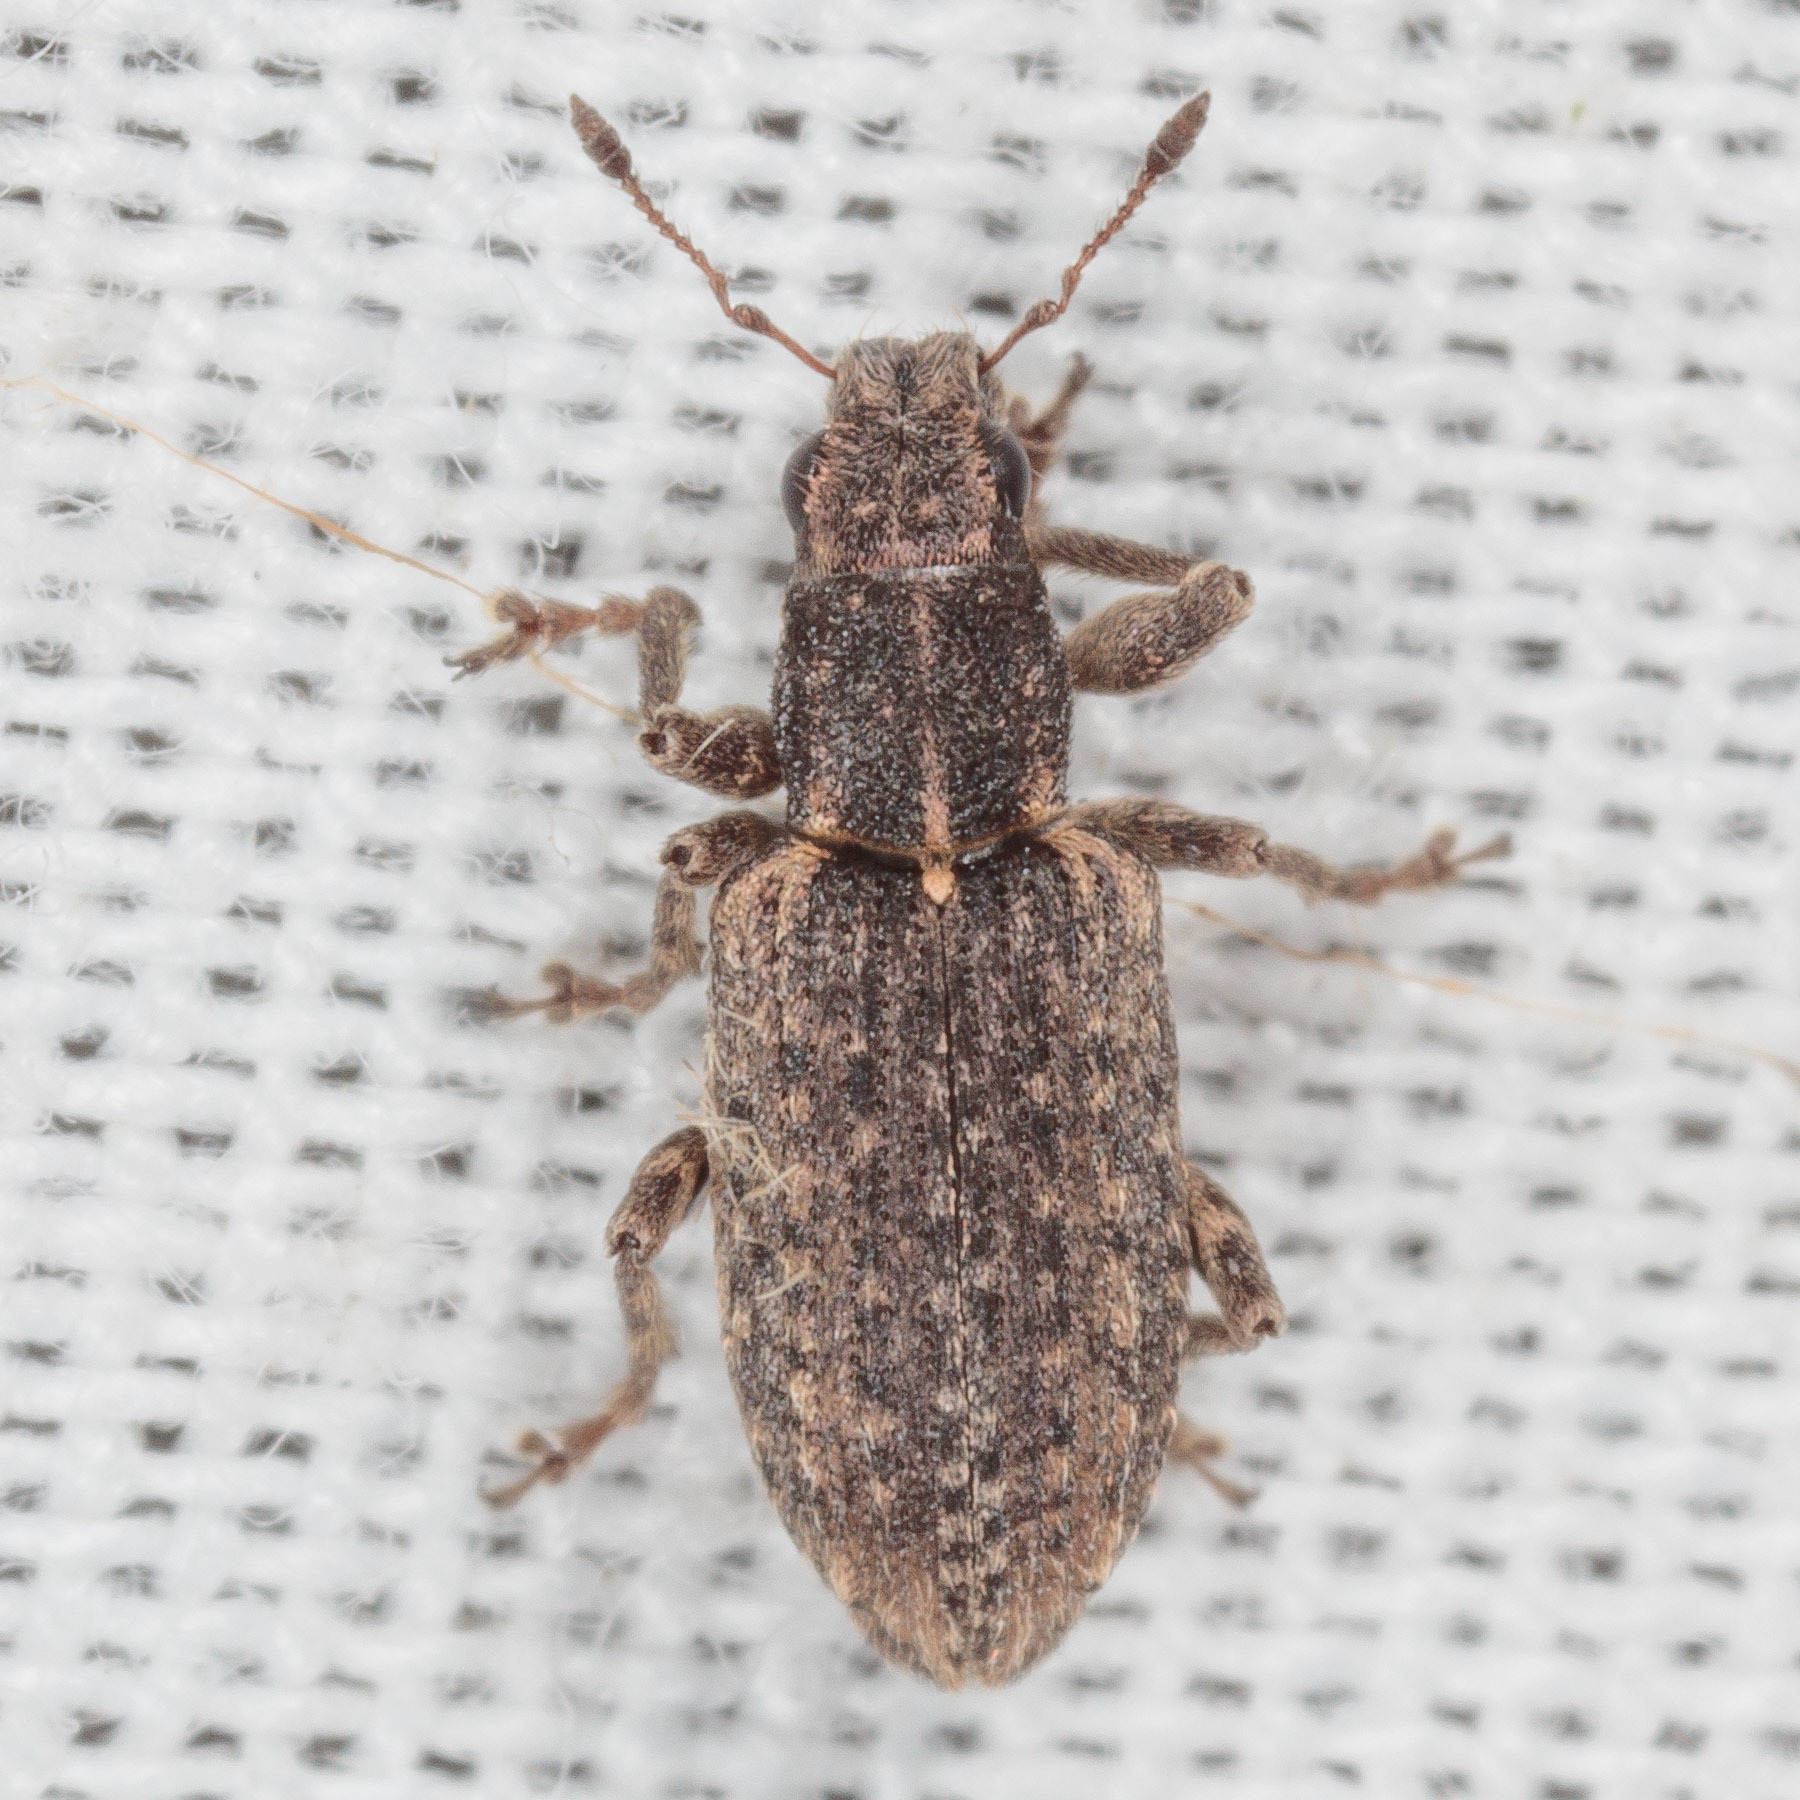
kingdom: Animalia
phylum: Arthropoda
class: Insecta
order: Coleoptera
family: Curculionidae
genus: Sitones
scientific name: Sitones californius
